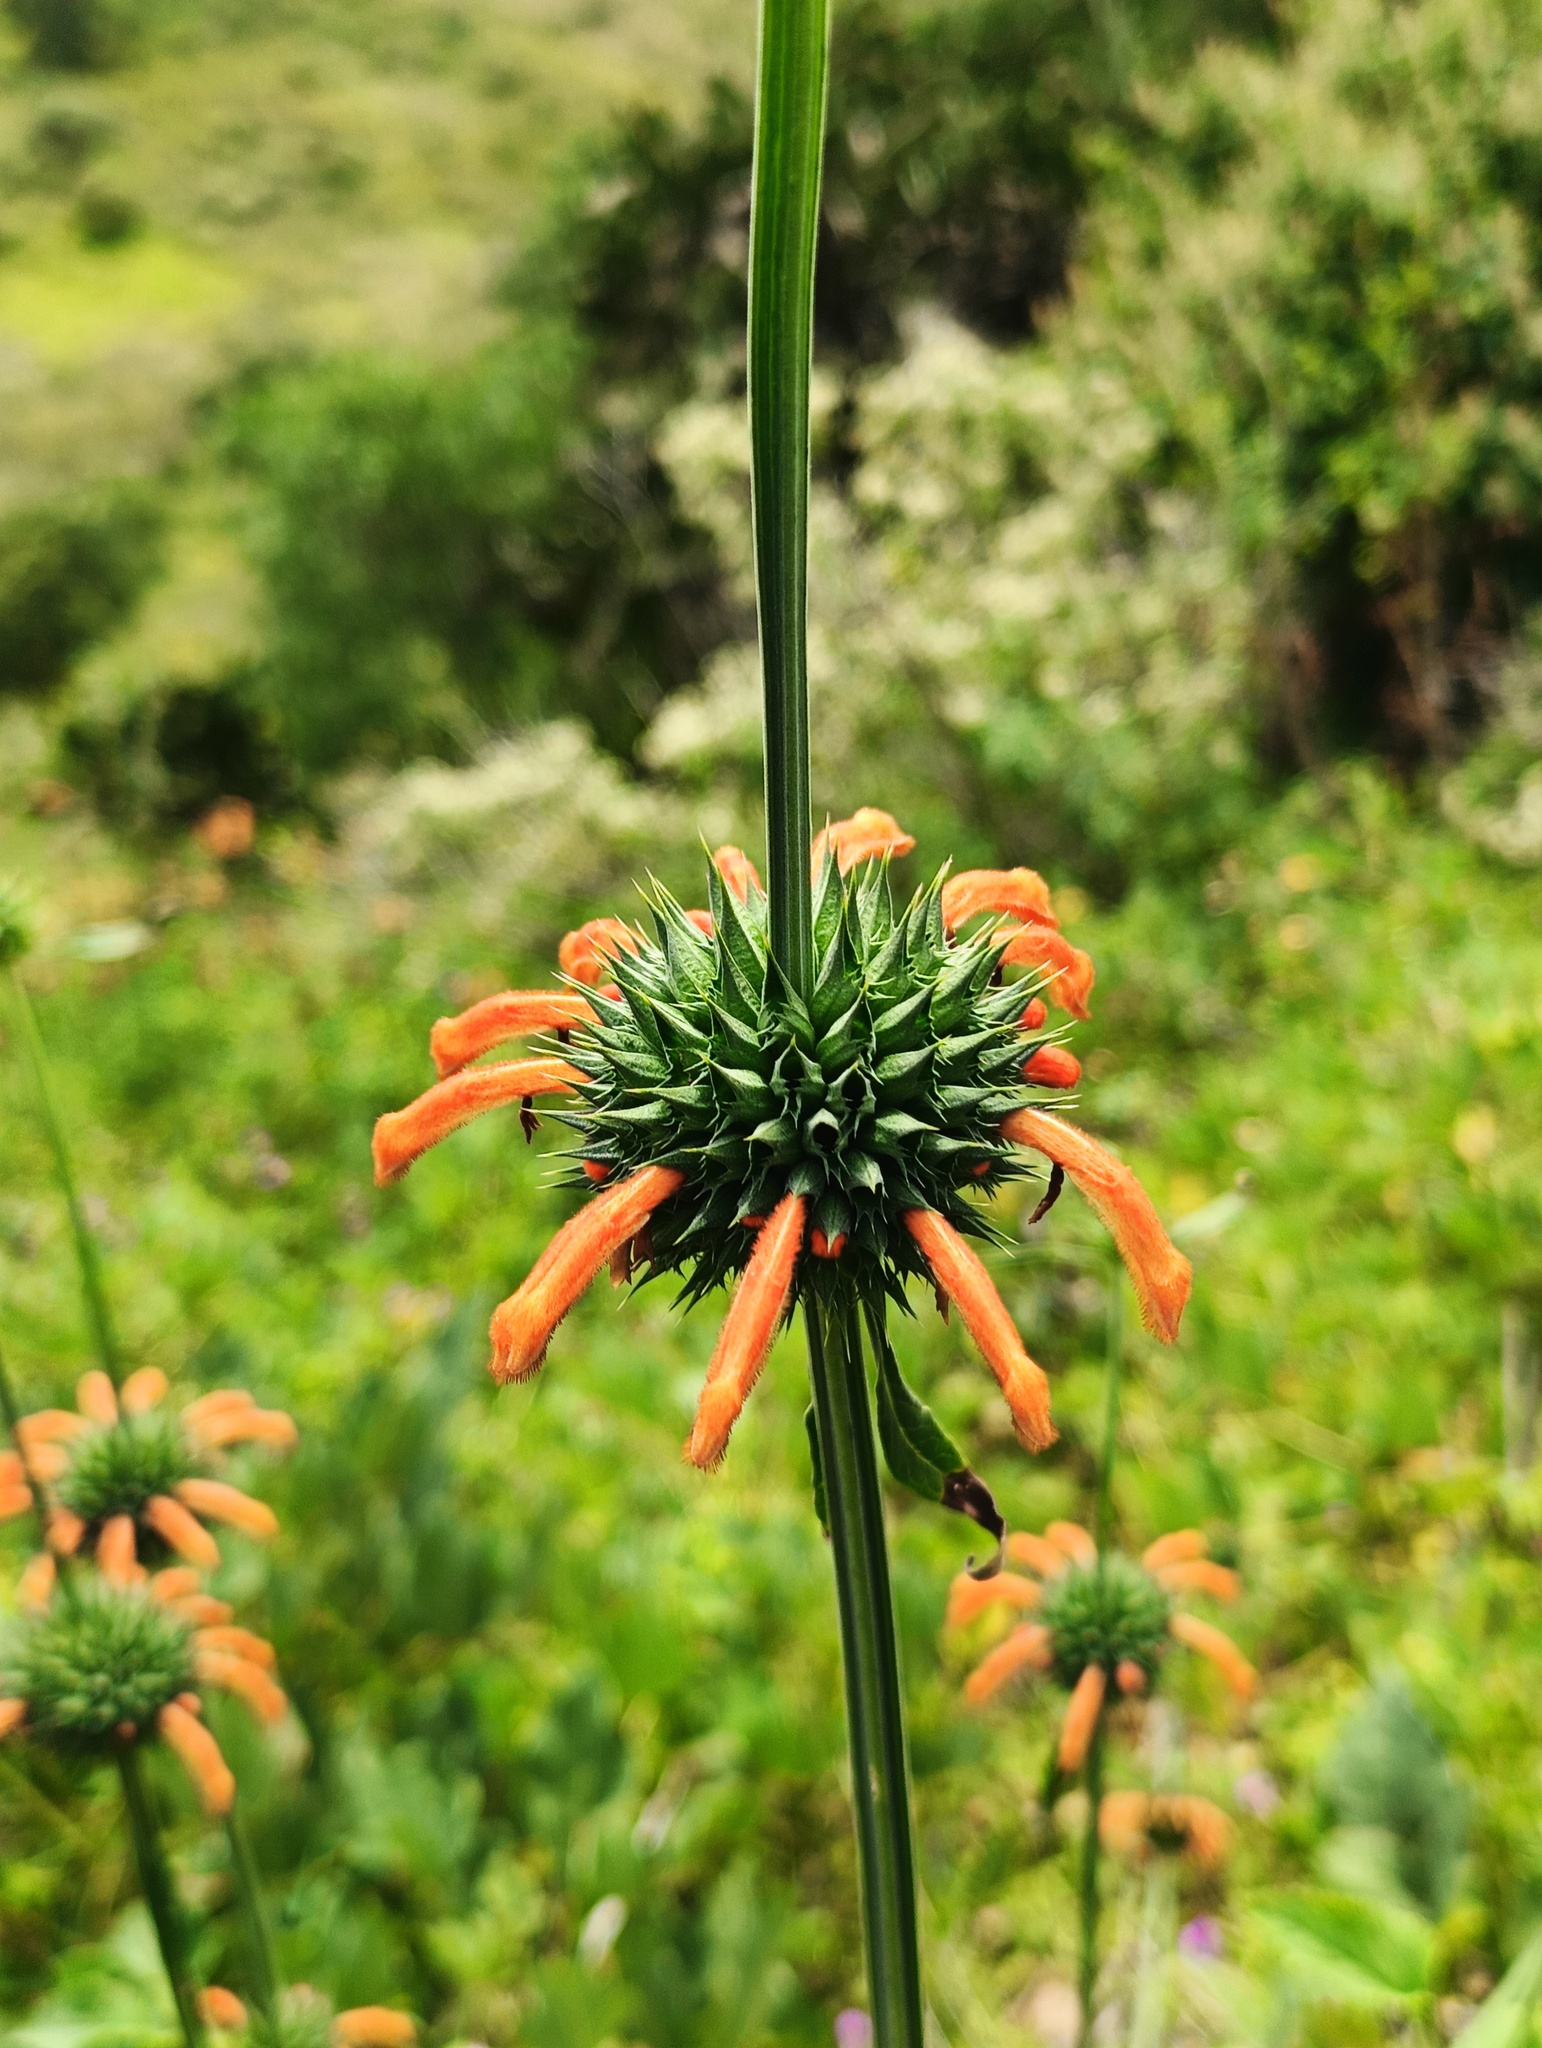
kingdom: Plantae
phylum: Tracheophyta
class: Magnoliopsida
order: Lamiales
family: Lamiaceae
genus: Leonotis
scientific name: Leonotis nepetifolia
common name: Christmas candlestick
